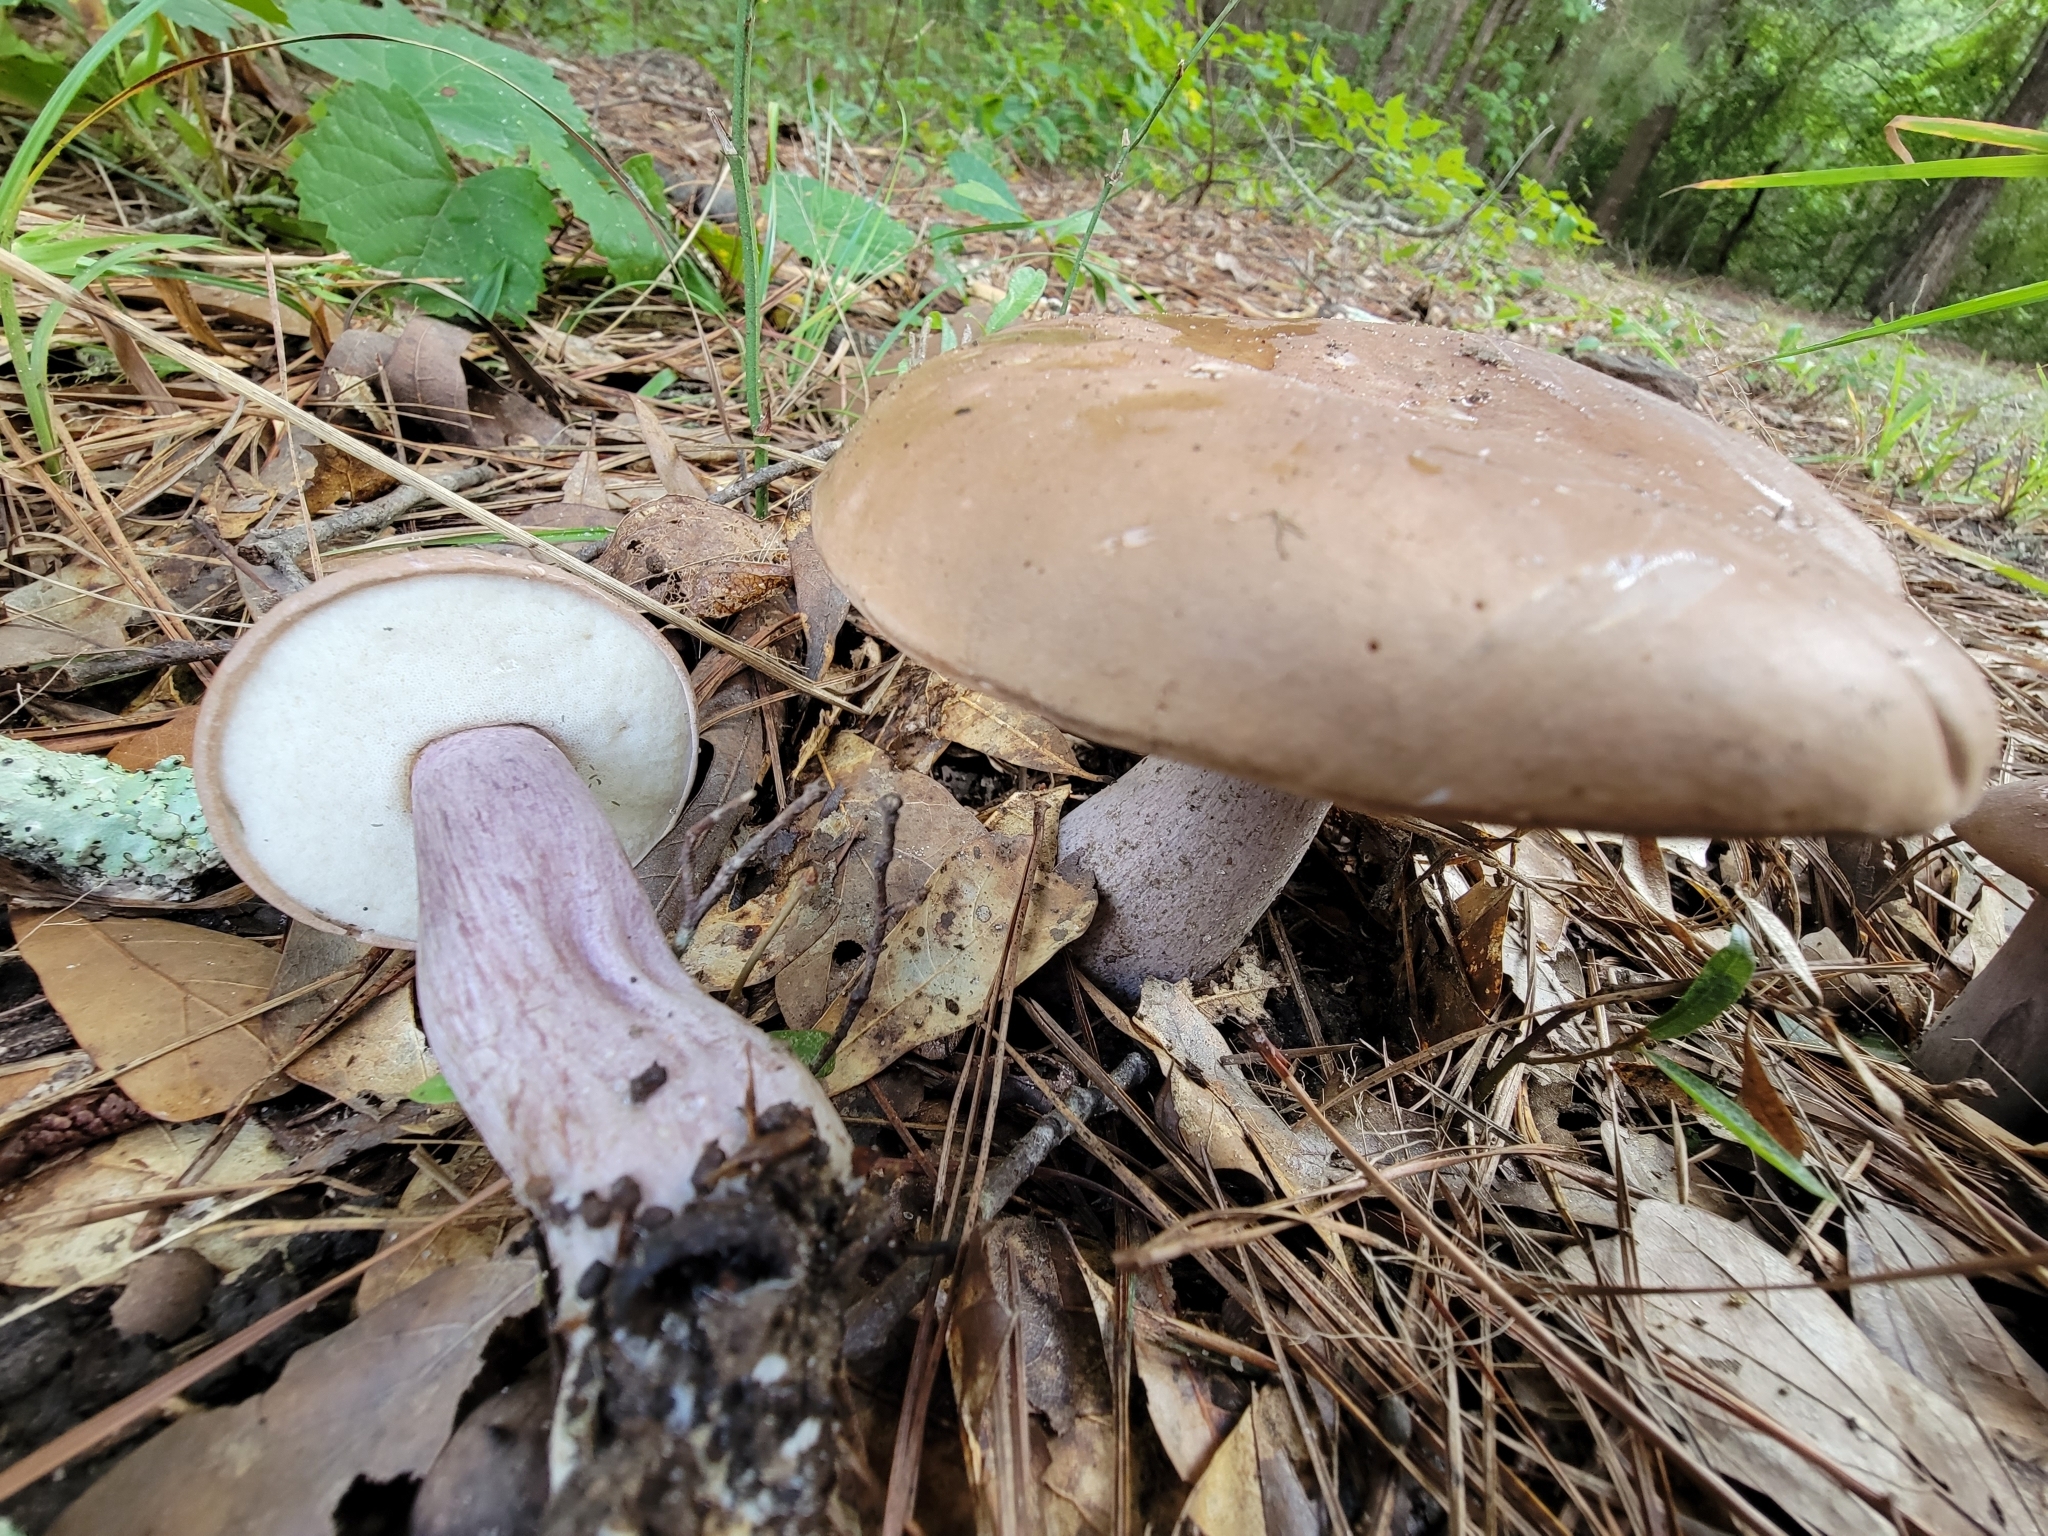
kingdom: Fungi
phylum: Basidiomycota
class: Agaricomycetes
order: Boletales
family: Boletaceae
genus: Tylopilus
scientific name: Tylopilus plumbeoviolaceus
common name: Violet gray bolete
